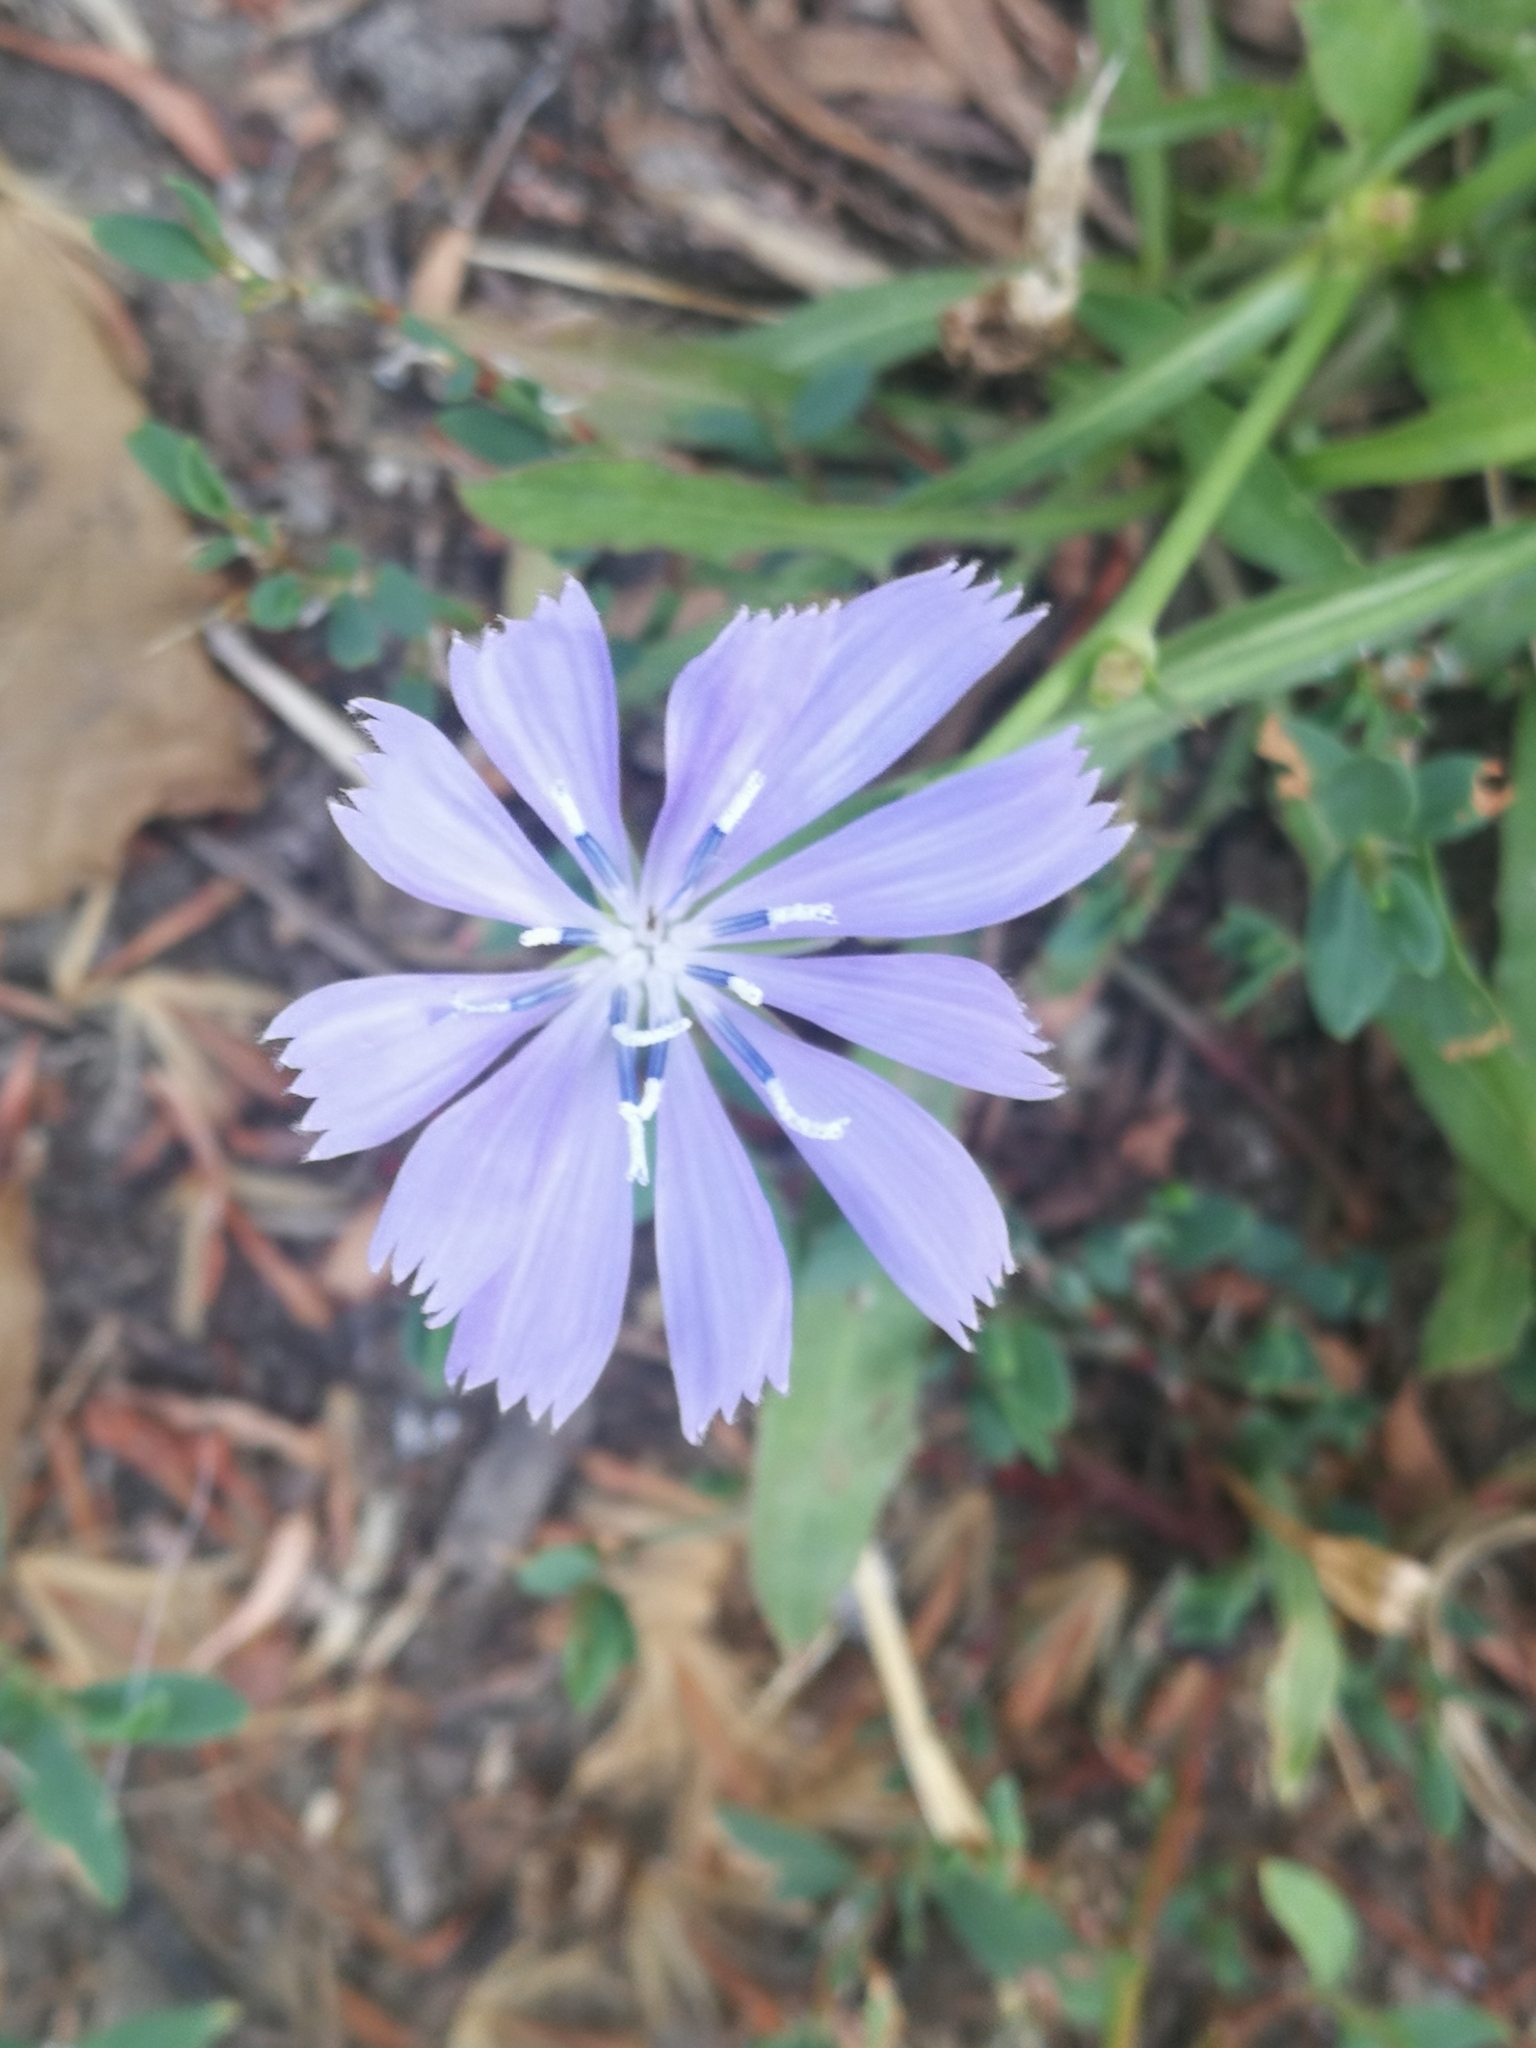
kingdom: Plantae
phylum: Tracheophyta
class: Magnoliopsida
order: Asterales
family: Asteraceae
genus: Cichorium
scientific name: Cichorium intybus
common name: Chicory
